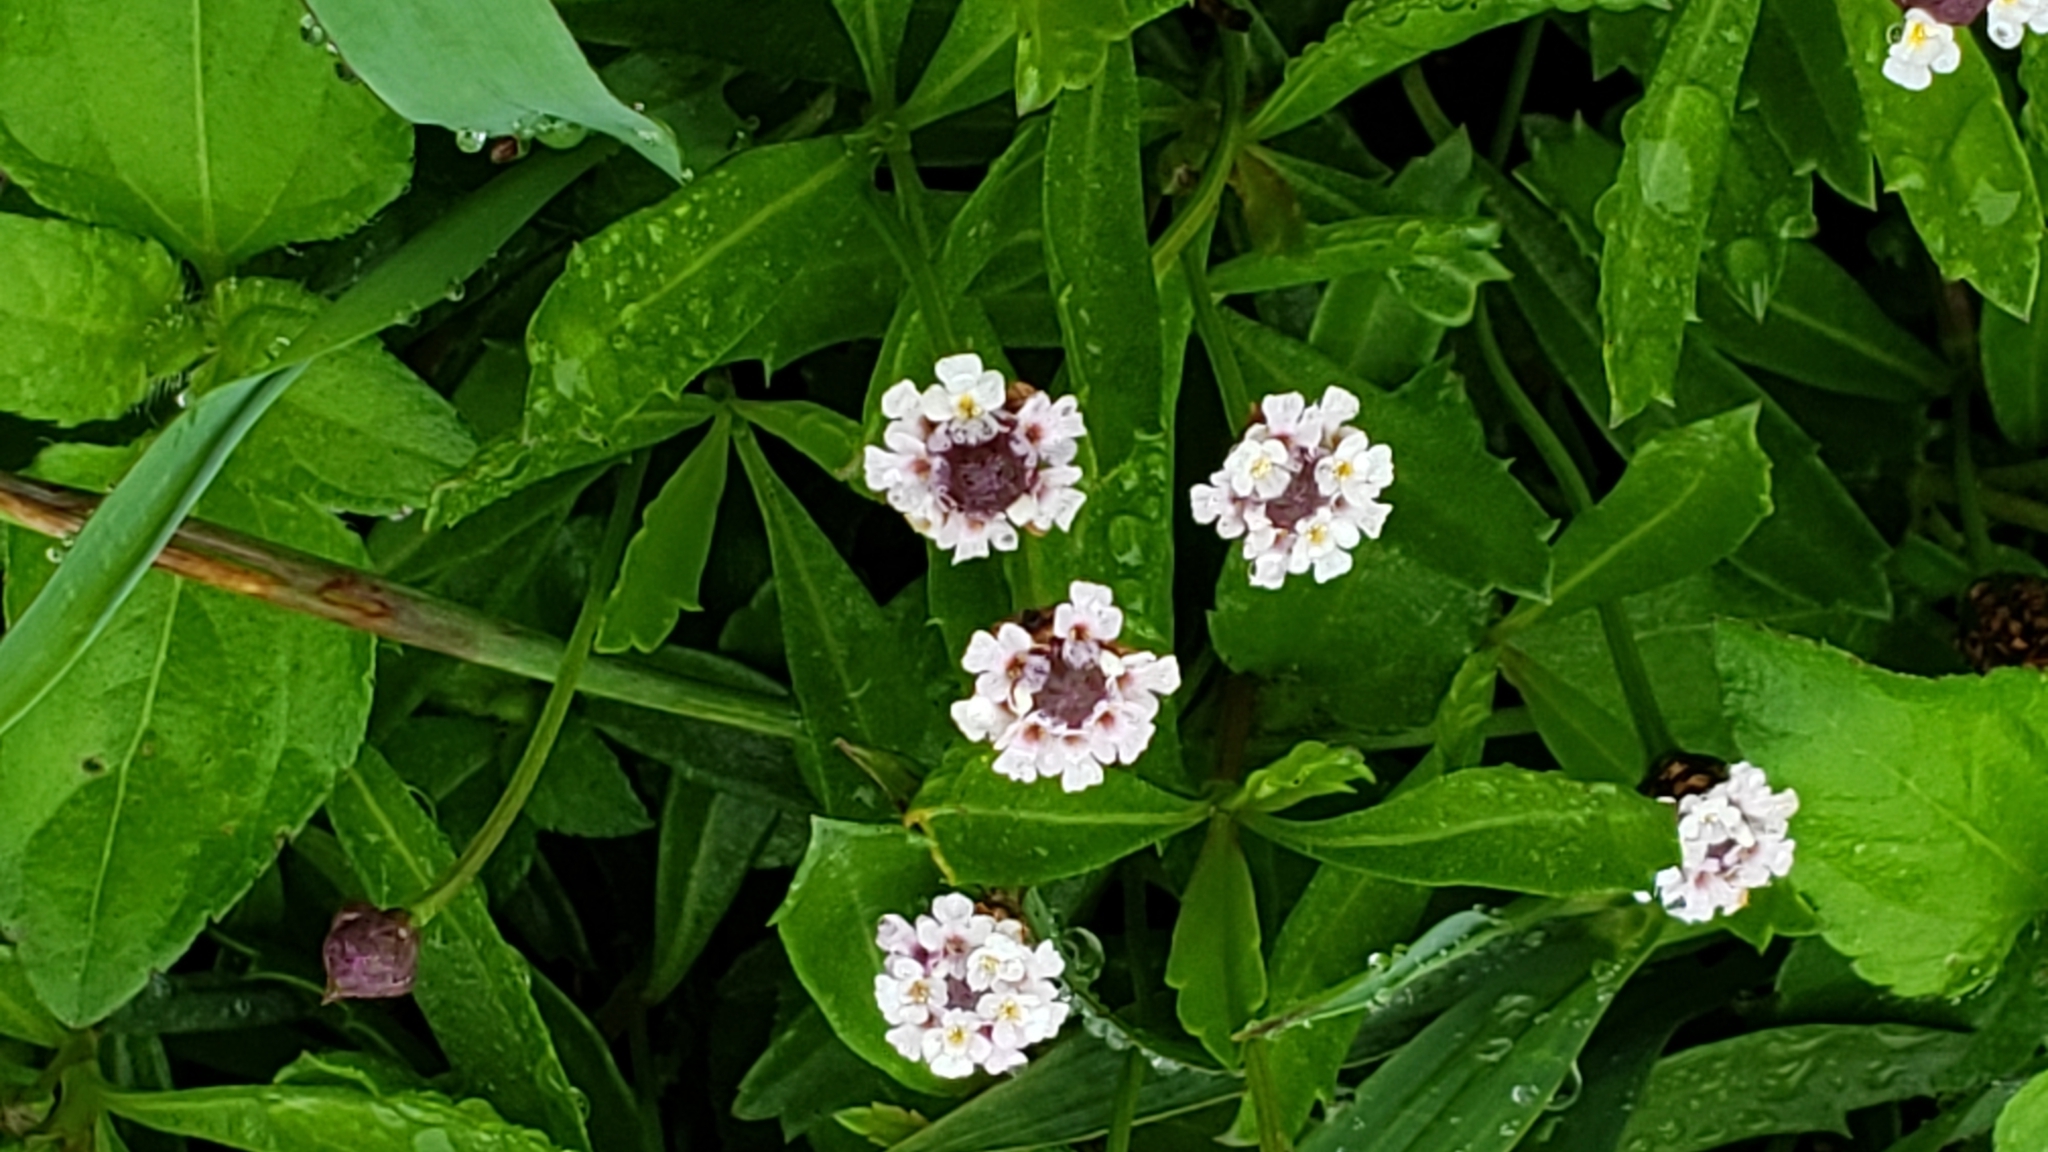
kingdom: Plantae
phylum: Tracheophyta
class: Magnoliopsida
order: Lamiales
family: Verbenaceae
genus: Phyla
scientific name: Phyla lanceolata
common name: Northern fogfruit
